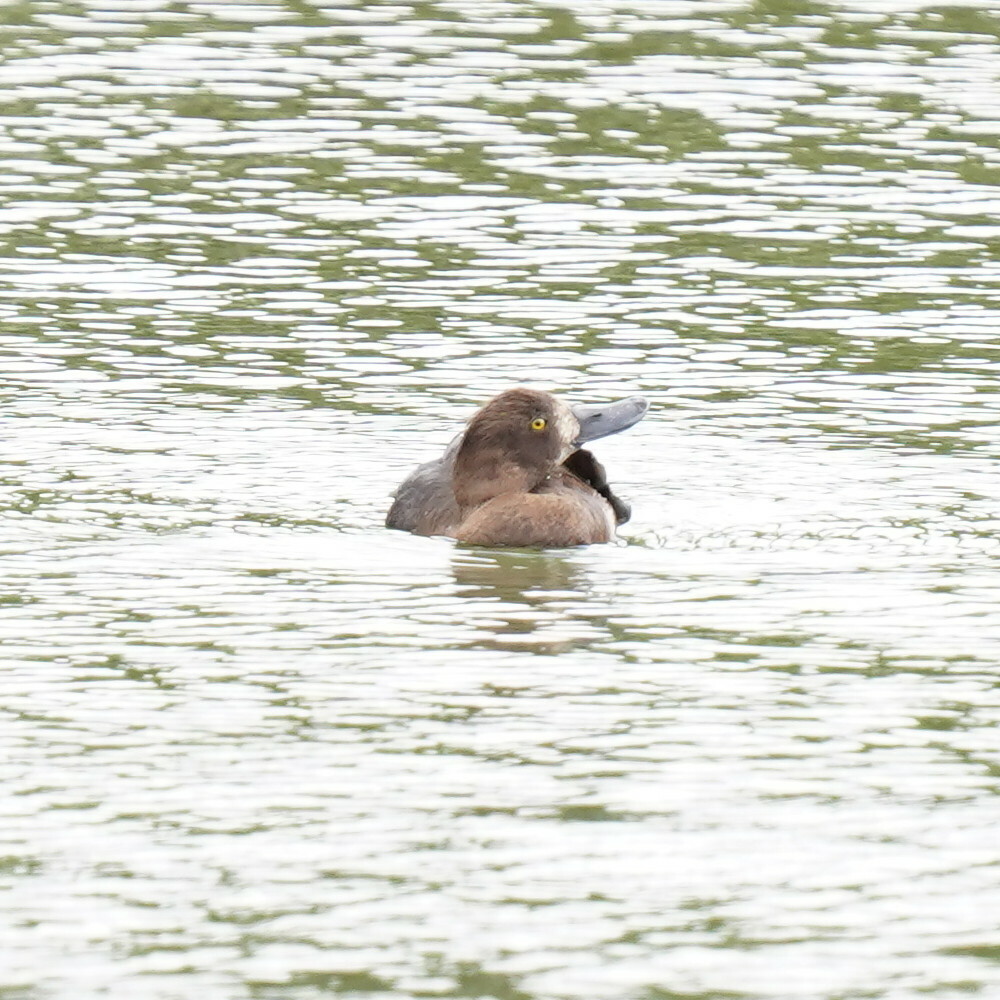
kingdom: Animalia
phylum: Chordata
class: Aves
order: Anseriformes
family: Anatidae
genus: Aythya
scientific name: Aythya fuligula
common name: Tufted duck
